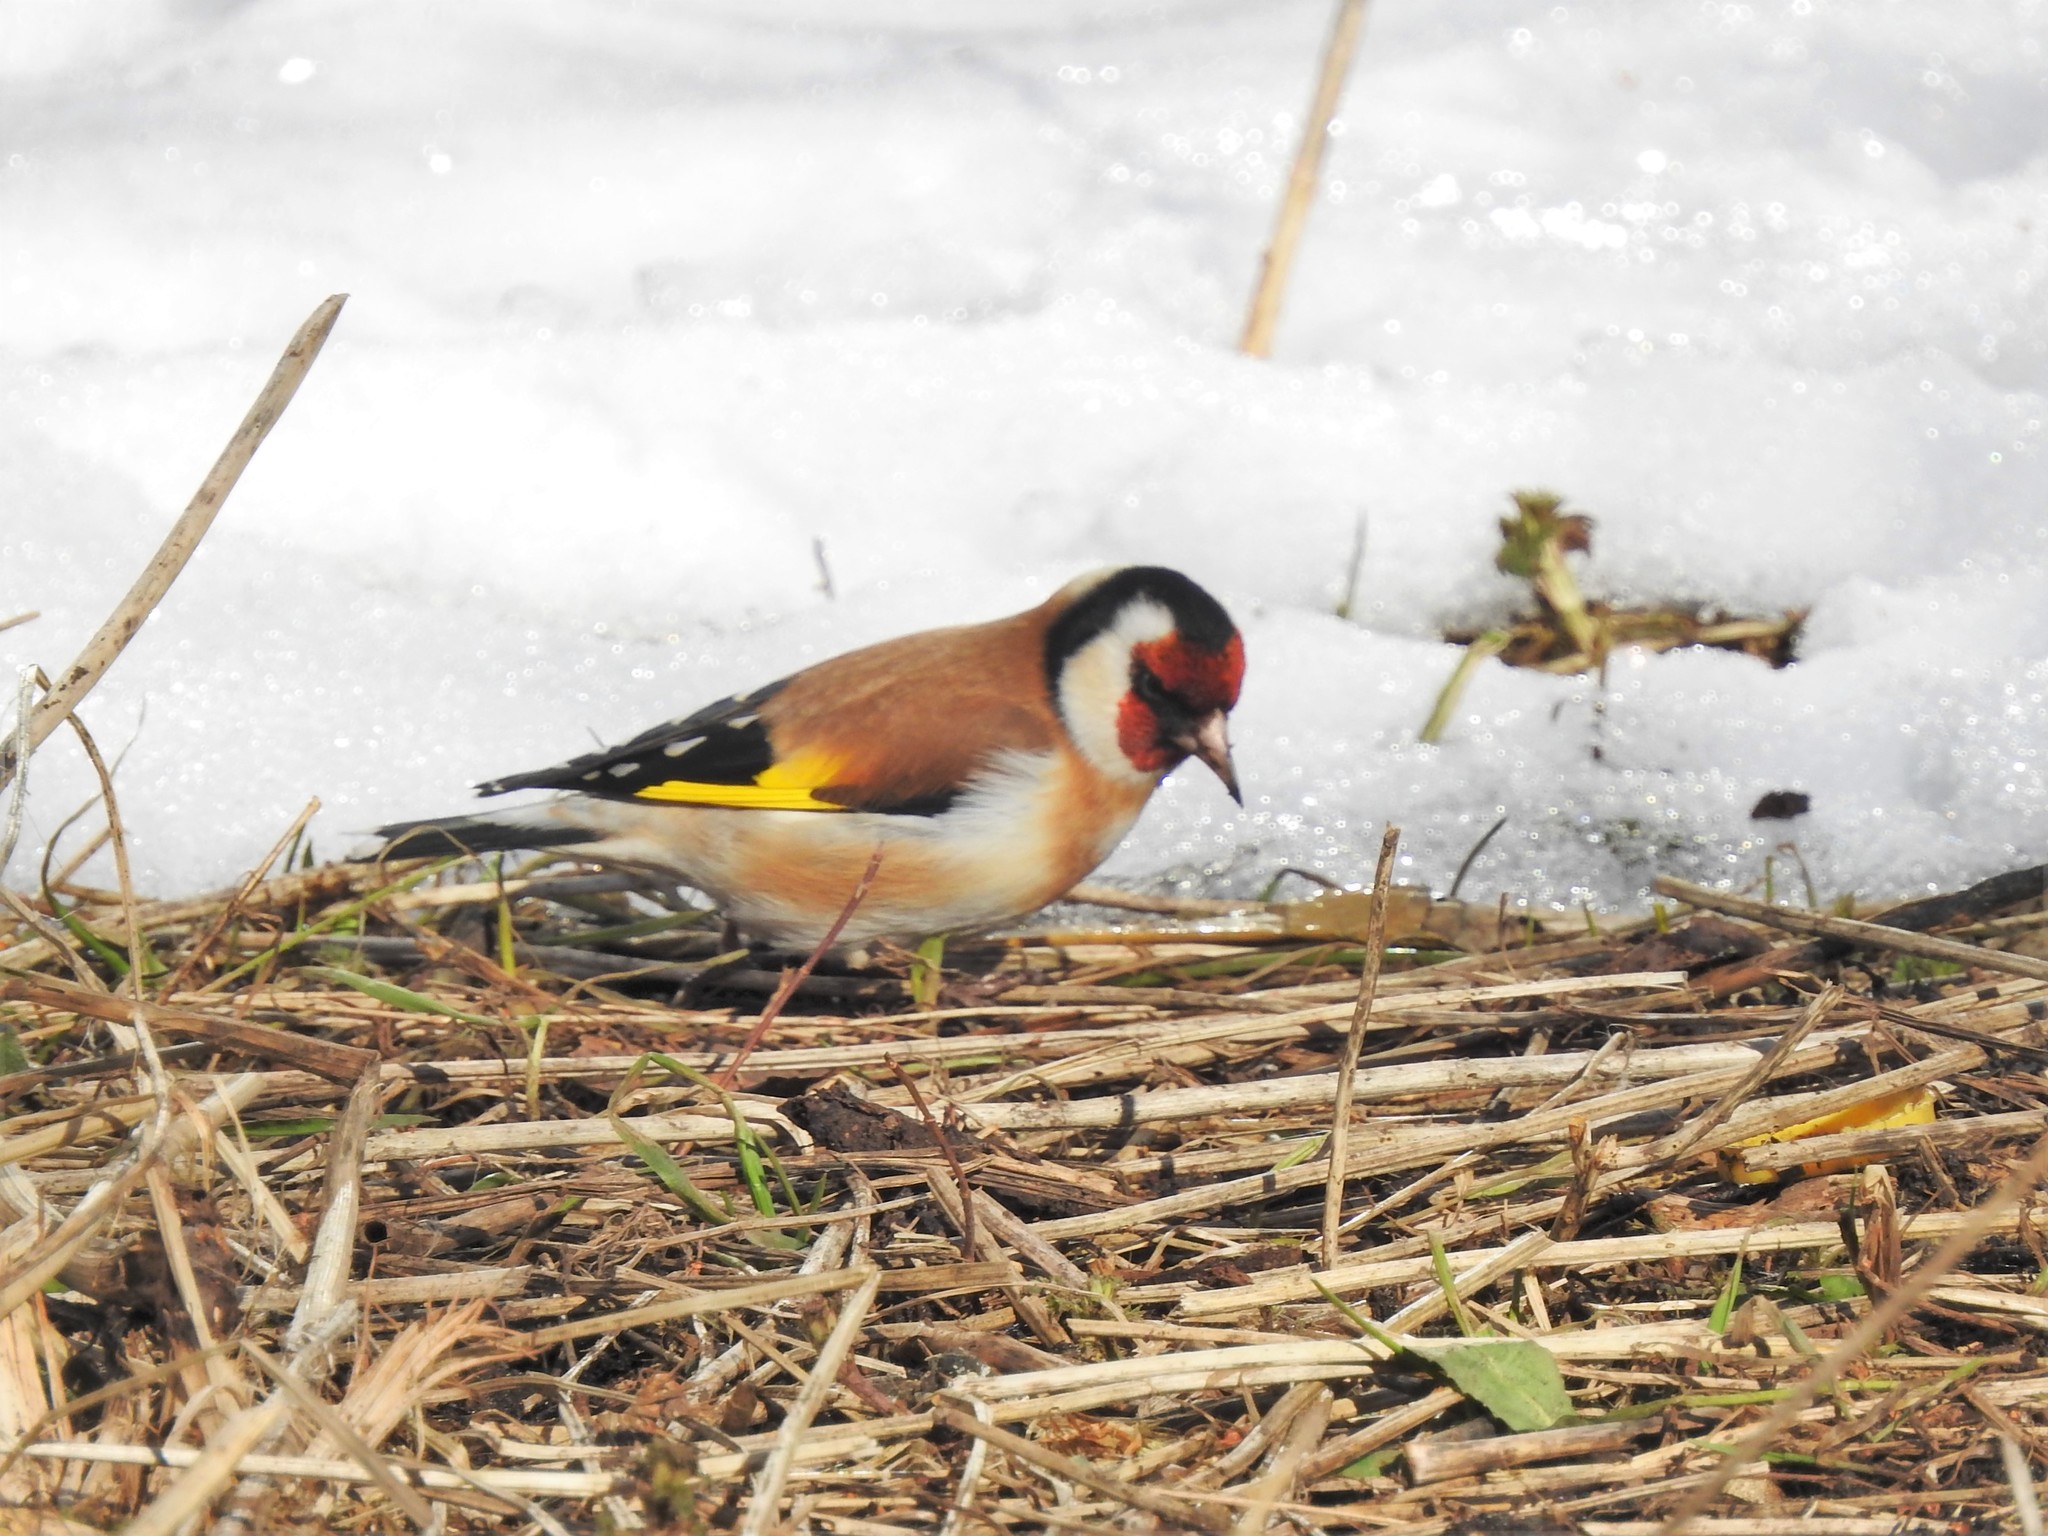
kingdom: Animalia
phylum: Chordata
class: Aves
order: Passeriformes
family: Fringillidae
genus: Carduelis
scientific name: Carduelis carduelis
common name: European goldfinch
